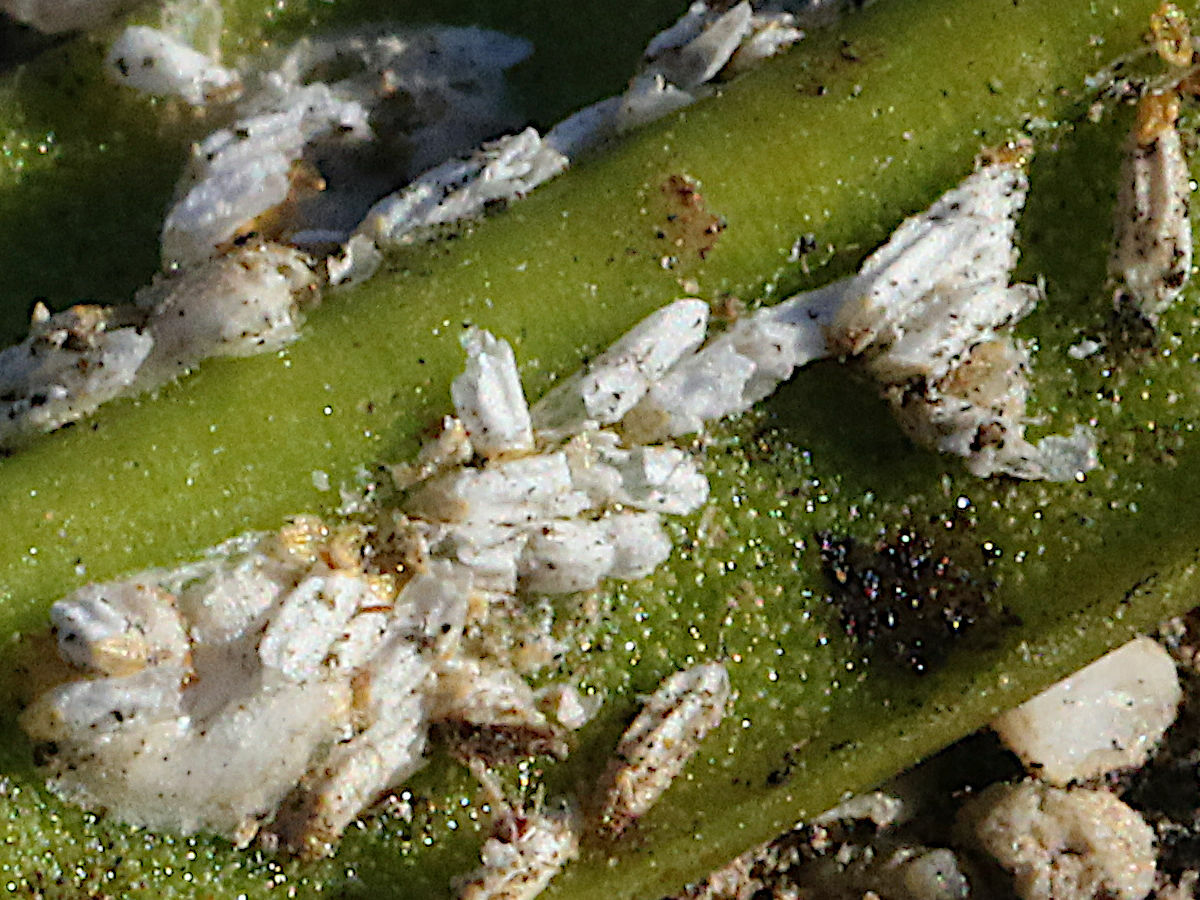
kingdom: Animalia
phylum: Arthropoda
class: Insecta
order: Hemiptera
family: Diaspididae
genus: Aulacaspis
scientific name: Aulacaspis yasumatsui
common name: Cycad aulacaspis scale
